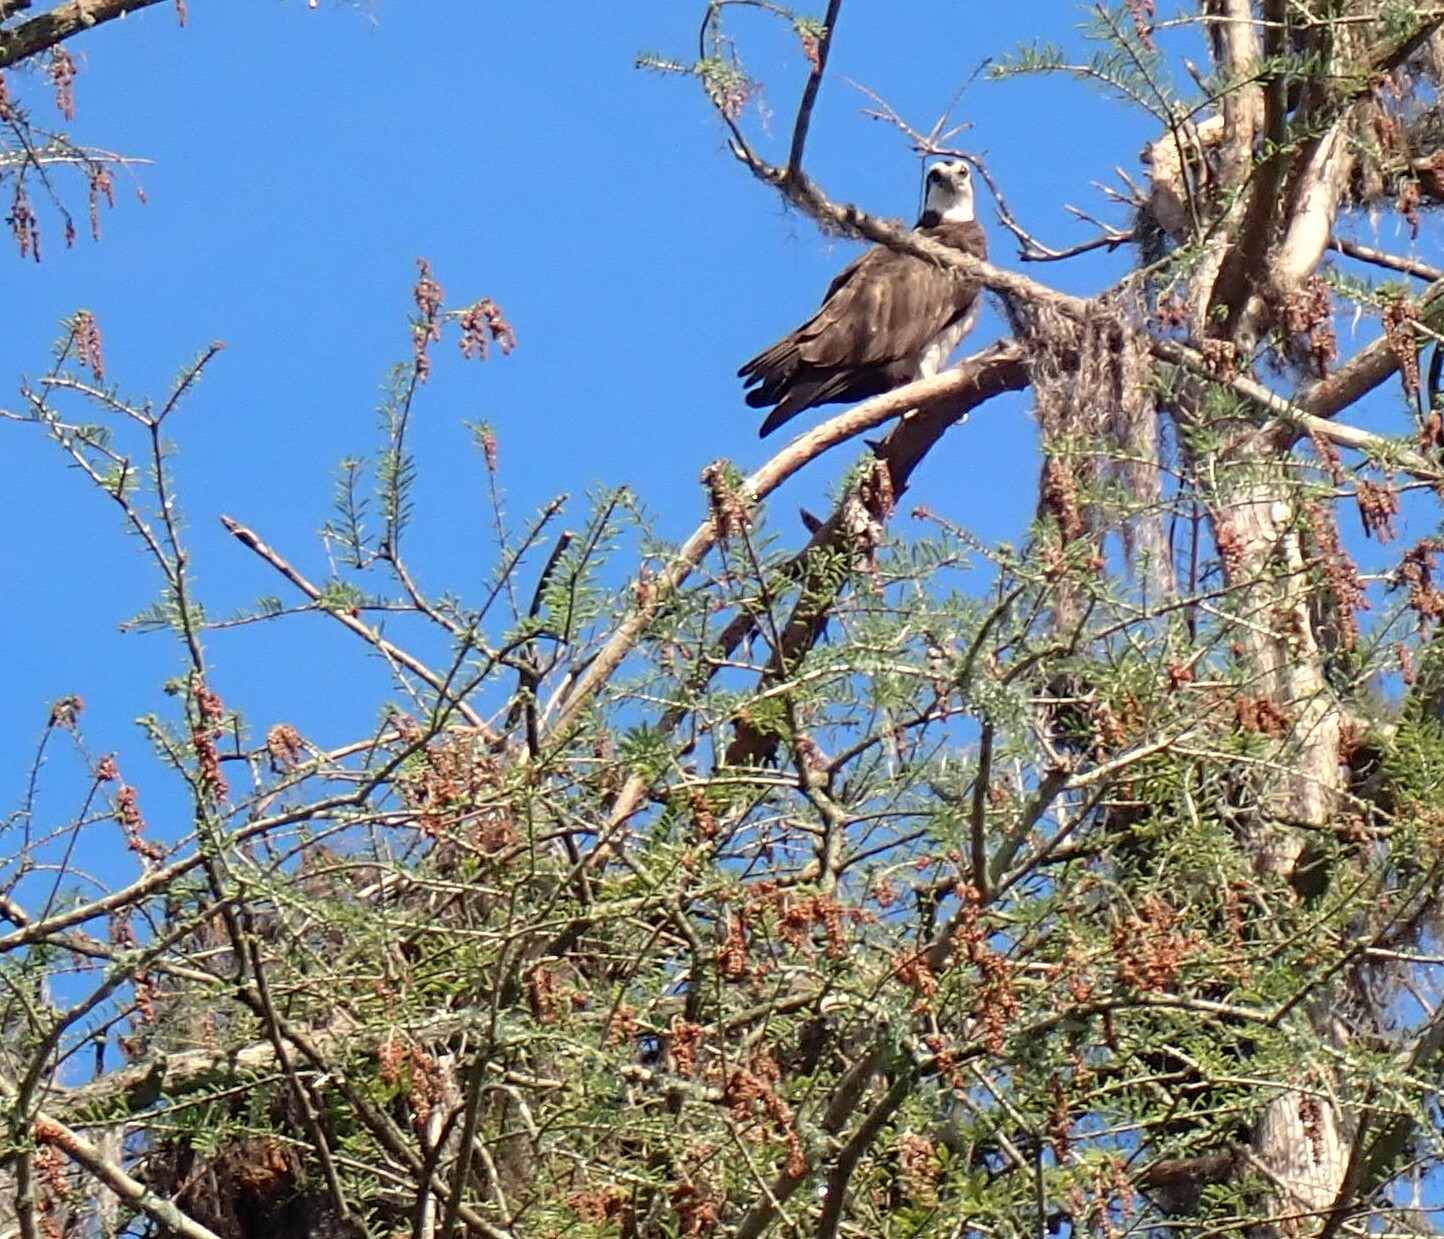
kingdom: Animalia
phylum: Chordata
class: Aves
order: Accipitriformes
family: Pandionidae
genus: Pandion
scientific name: Pandion haliaetus
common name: Osprey
